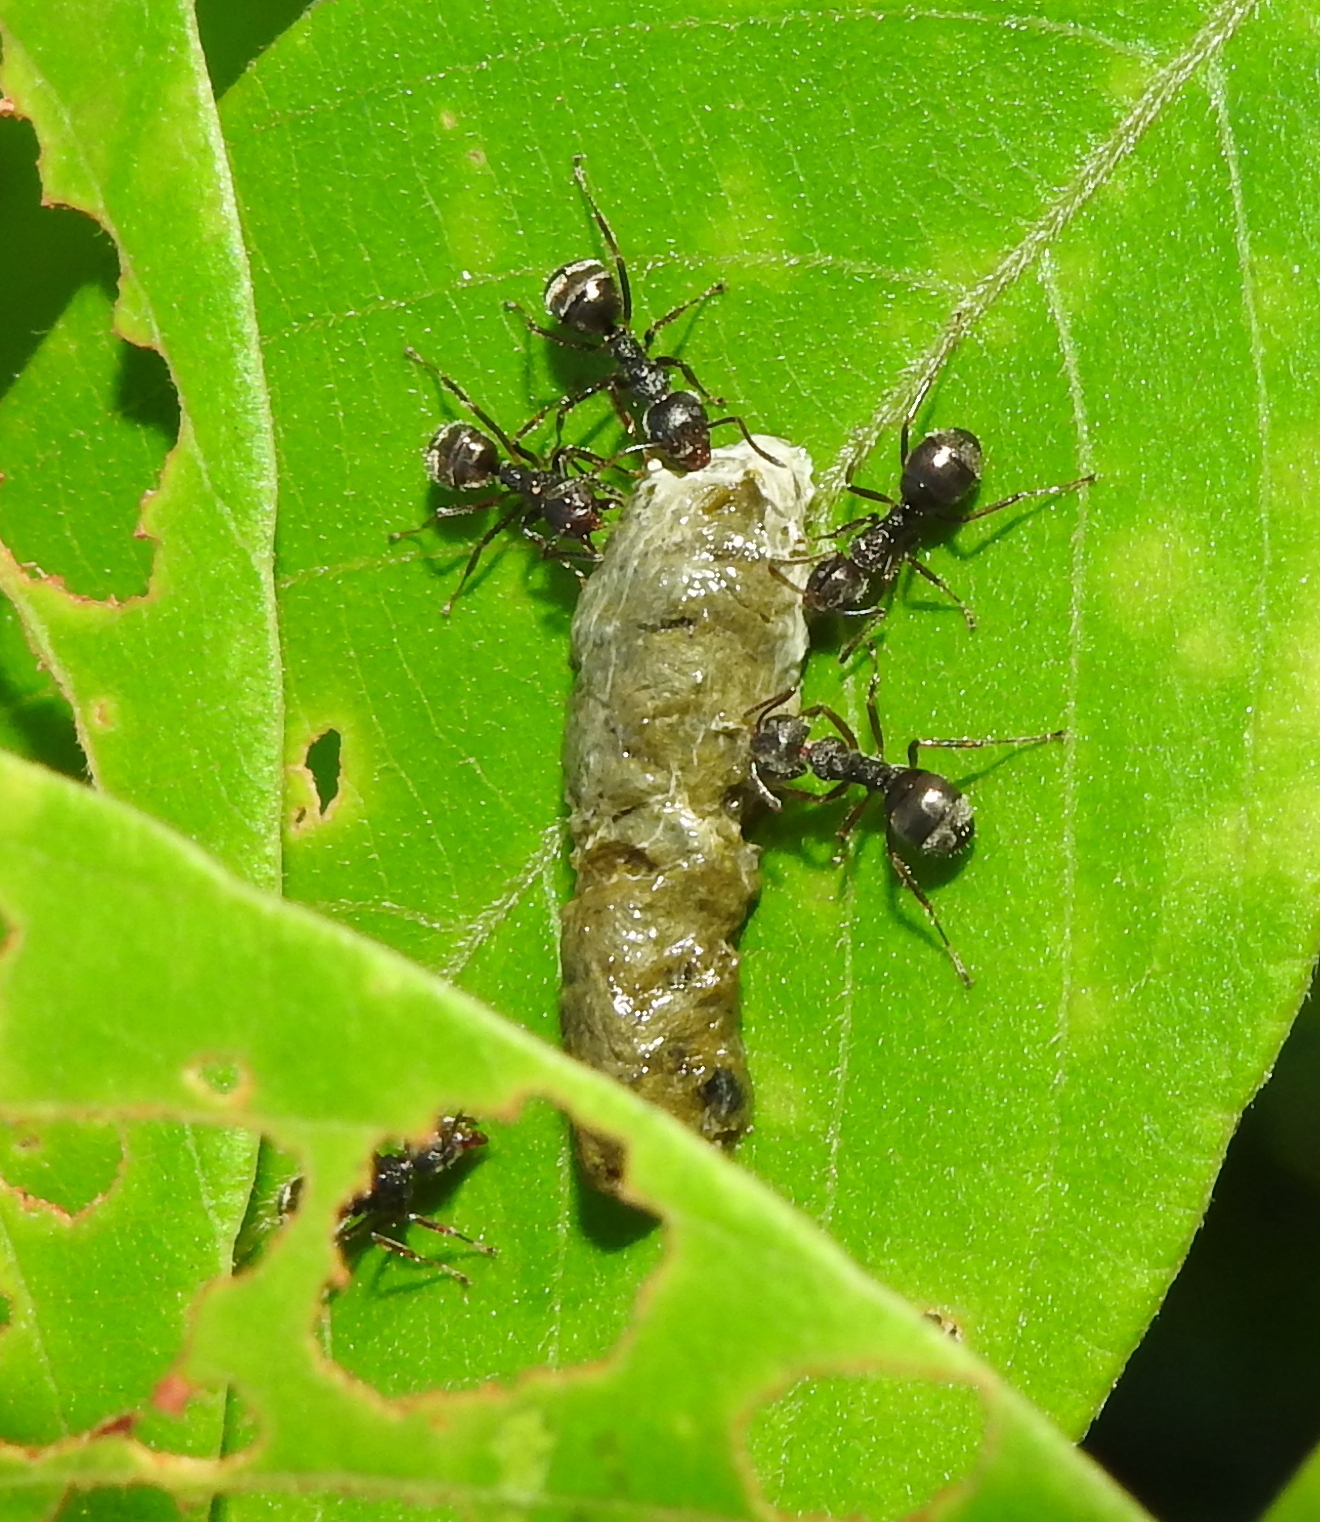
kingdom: Animalia
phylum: Arthropoda
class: Insecta
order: Hymenoptera
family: Formicidae
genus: Dolichoderus
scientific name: Dolichoderus thoracicus
